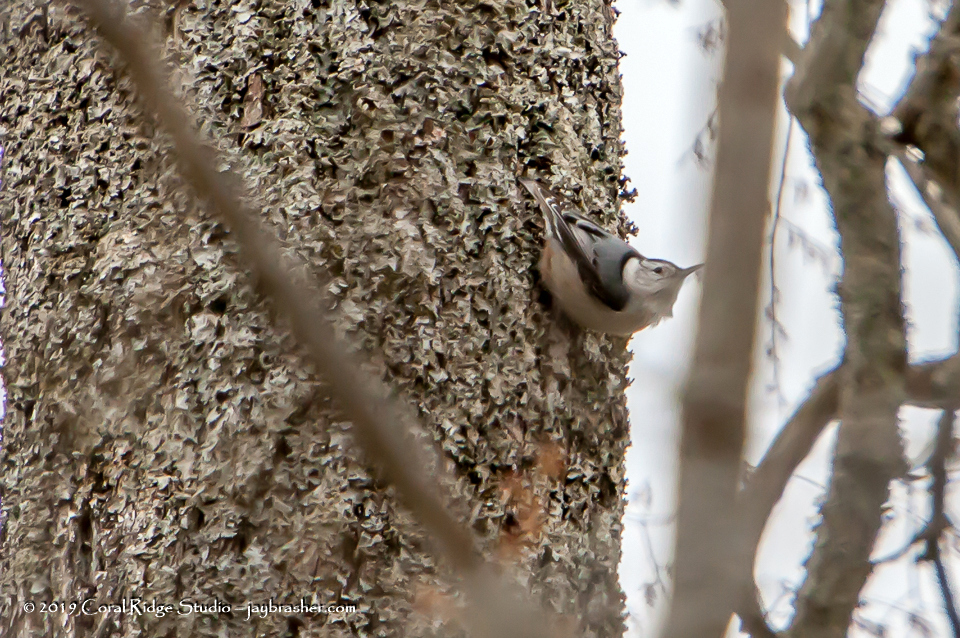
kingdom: Animalia
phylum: Chordata
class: Aves
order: Passeriformes
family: Sittidae
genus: Sitta
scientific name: Sitta carolinensis
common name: White-breasted nuthatch
